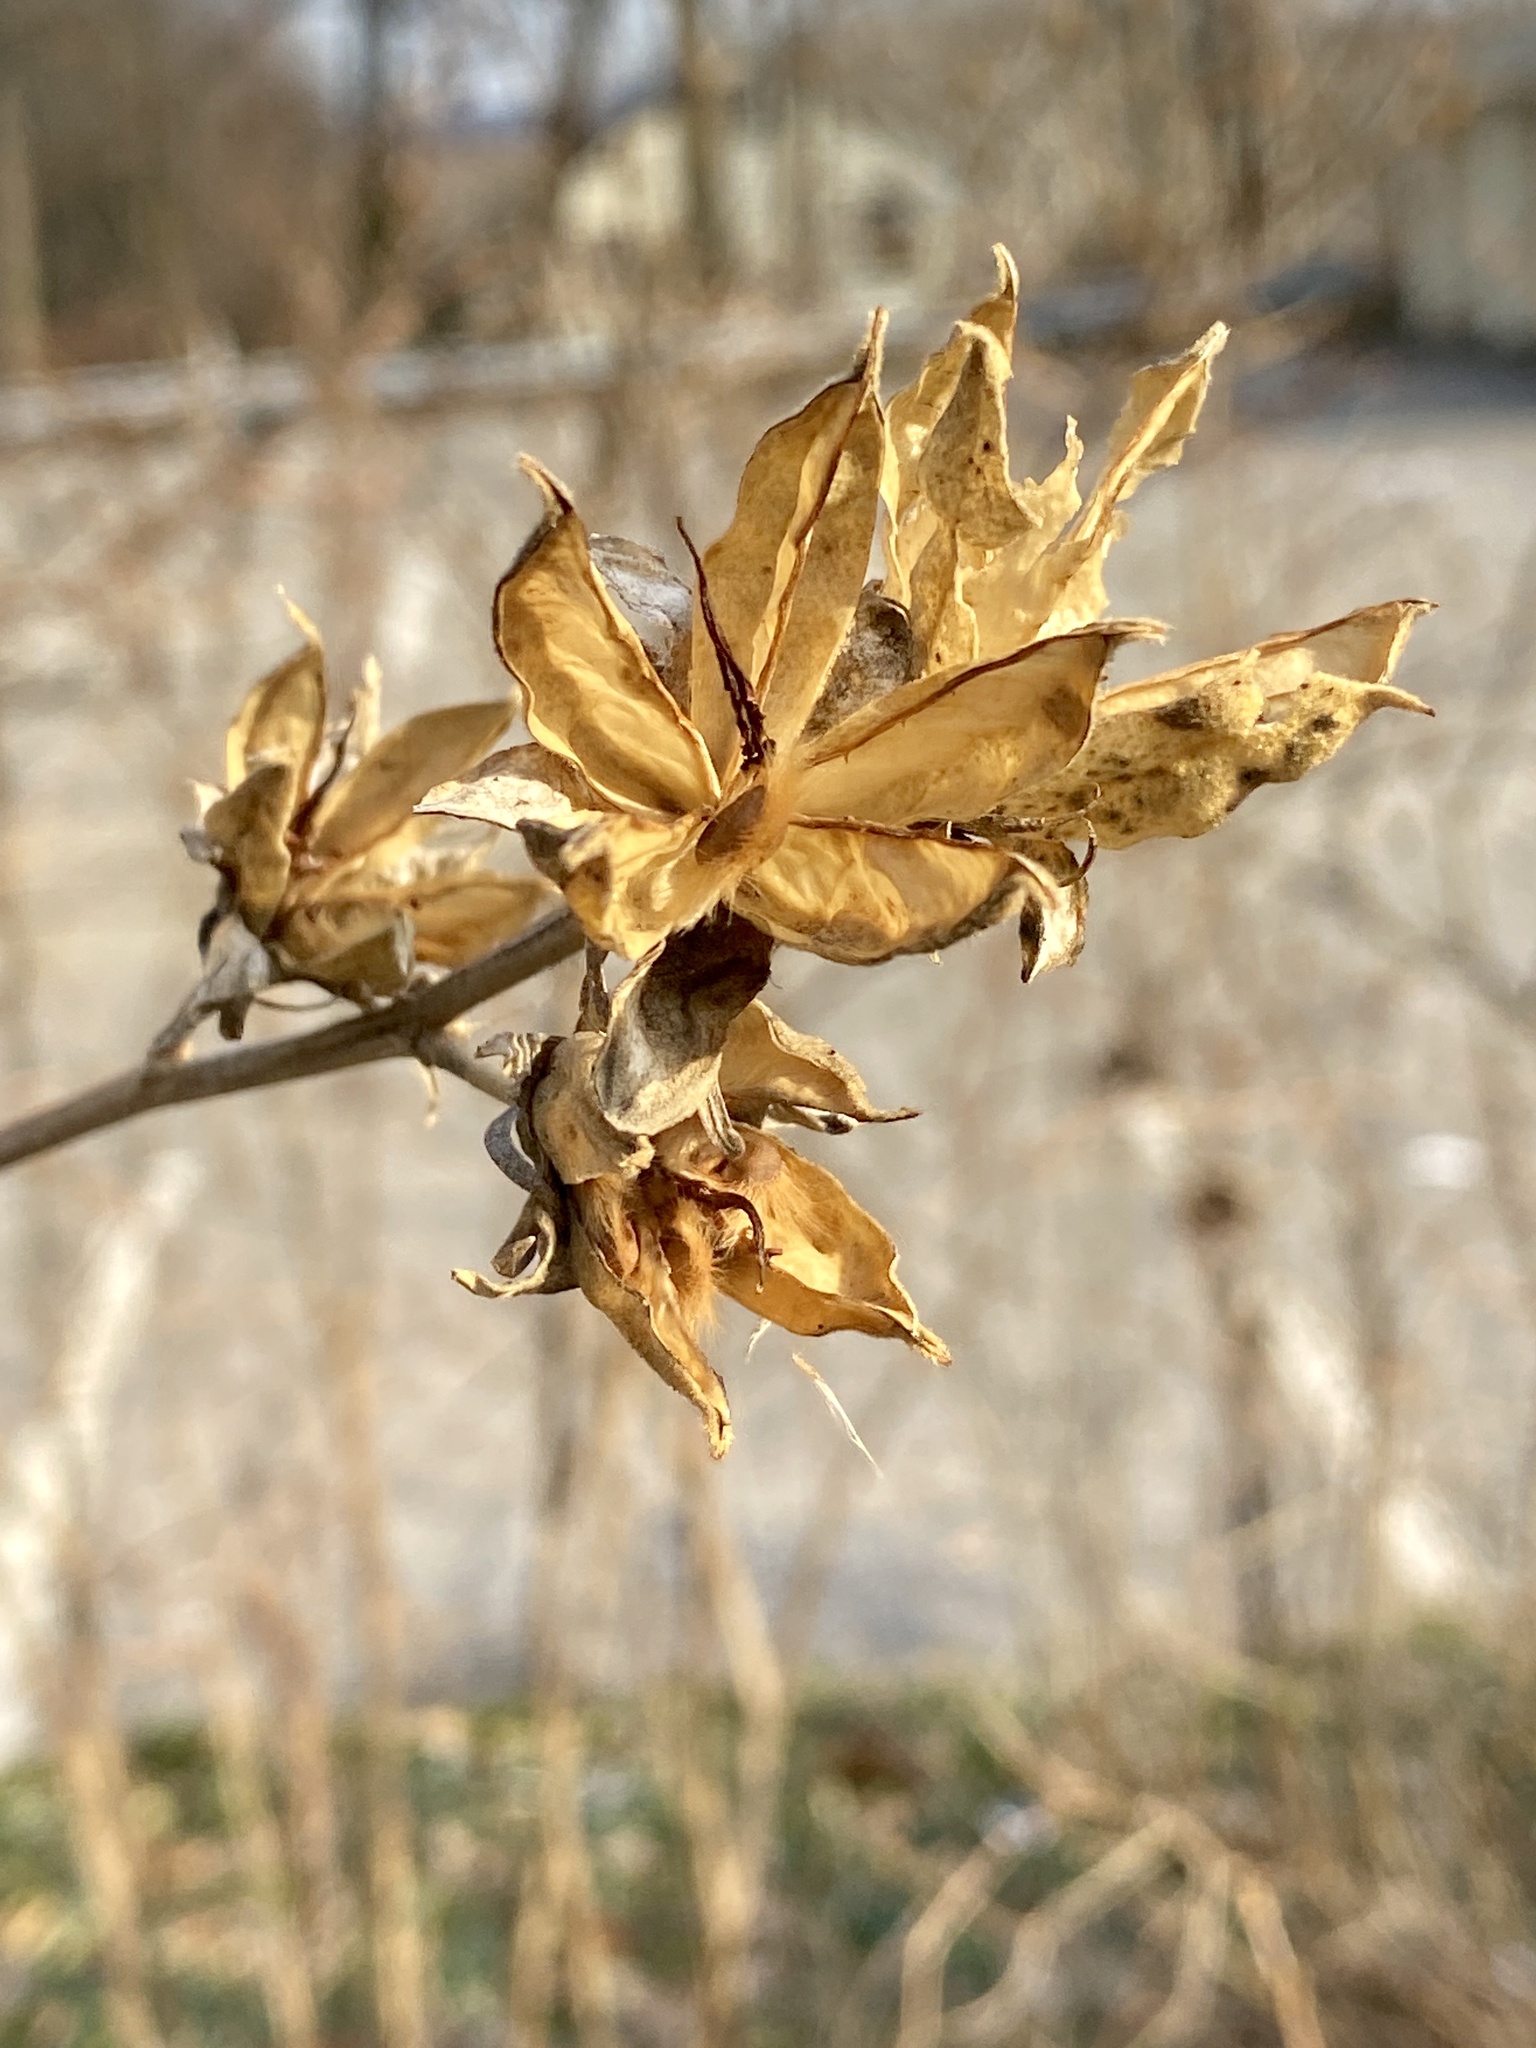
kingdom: Plantae
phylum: Tracheophyta
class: Magnoliopsida
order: Malvales
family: Malvaceae
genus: Hibiscus
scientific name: Hibiscus syriacus
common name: Syrian ketmia
